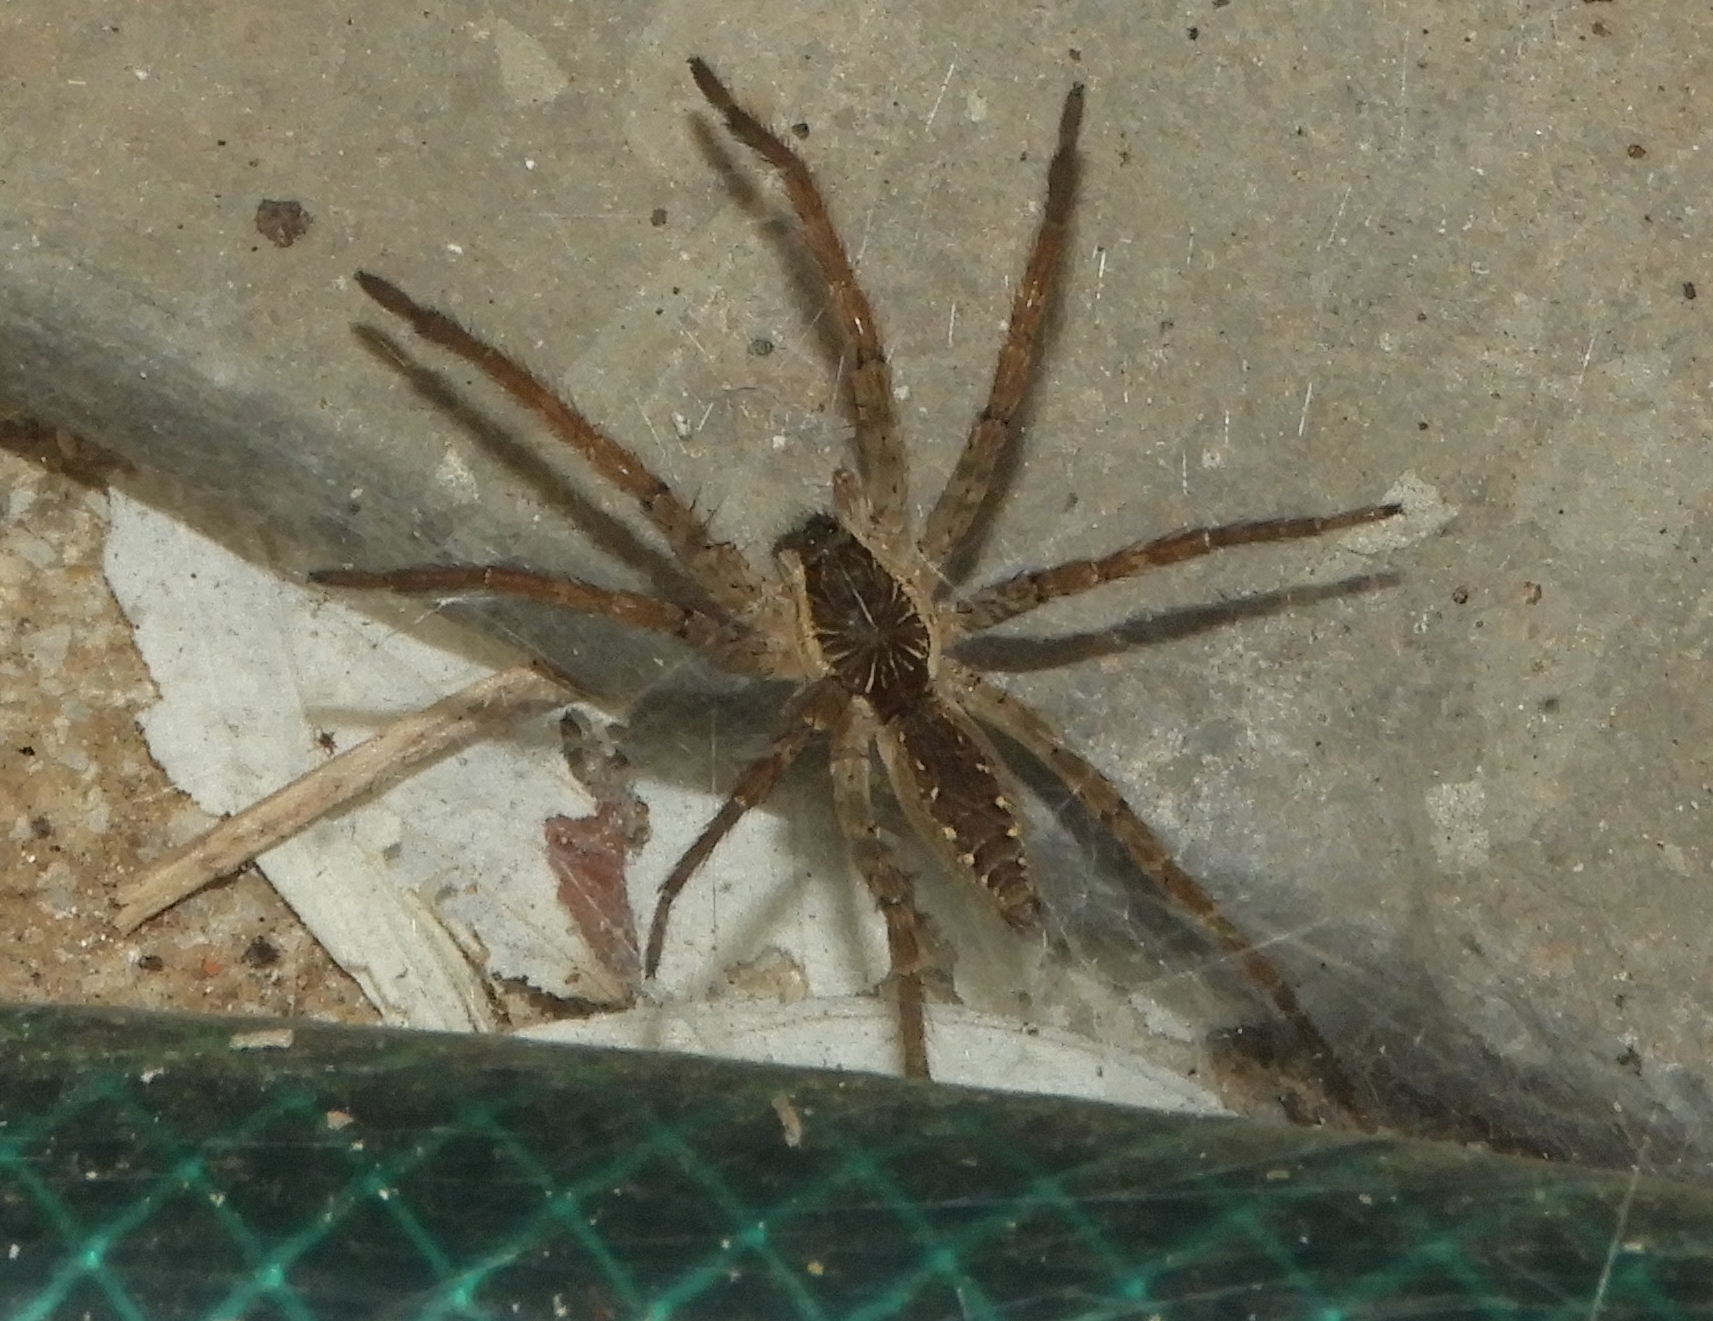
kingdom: Animalia
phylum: Arthropoda
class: Arachnida
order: Araneae
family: Lycosidae
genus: Sosippus
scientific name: Sosippus californicus
